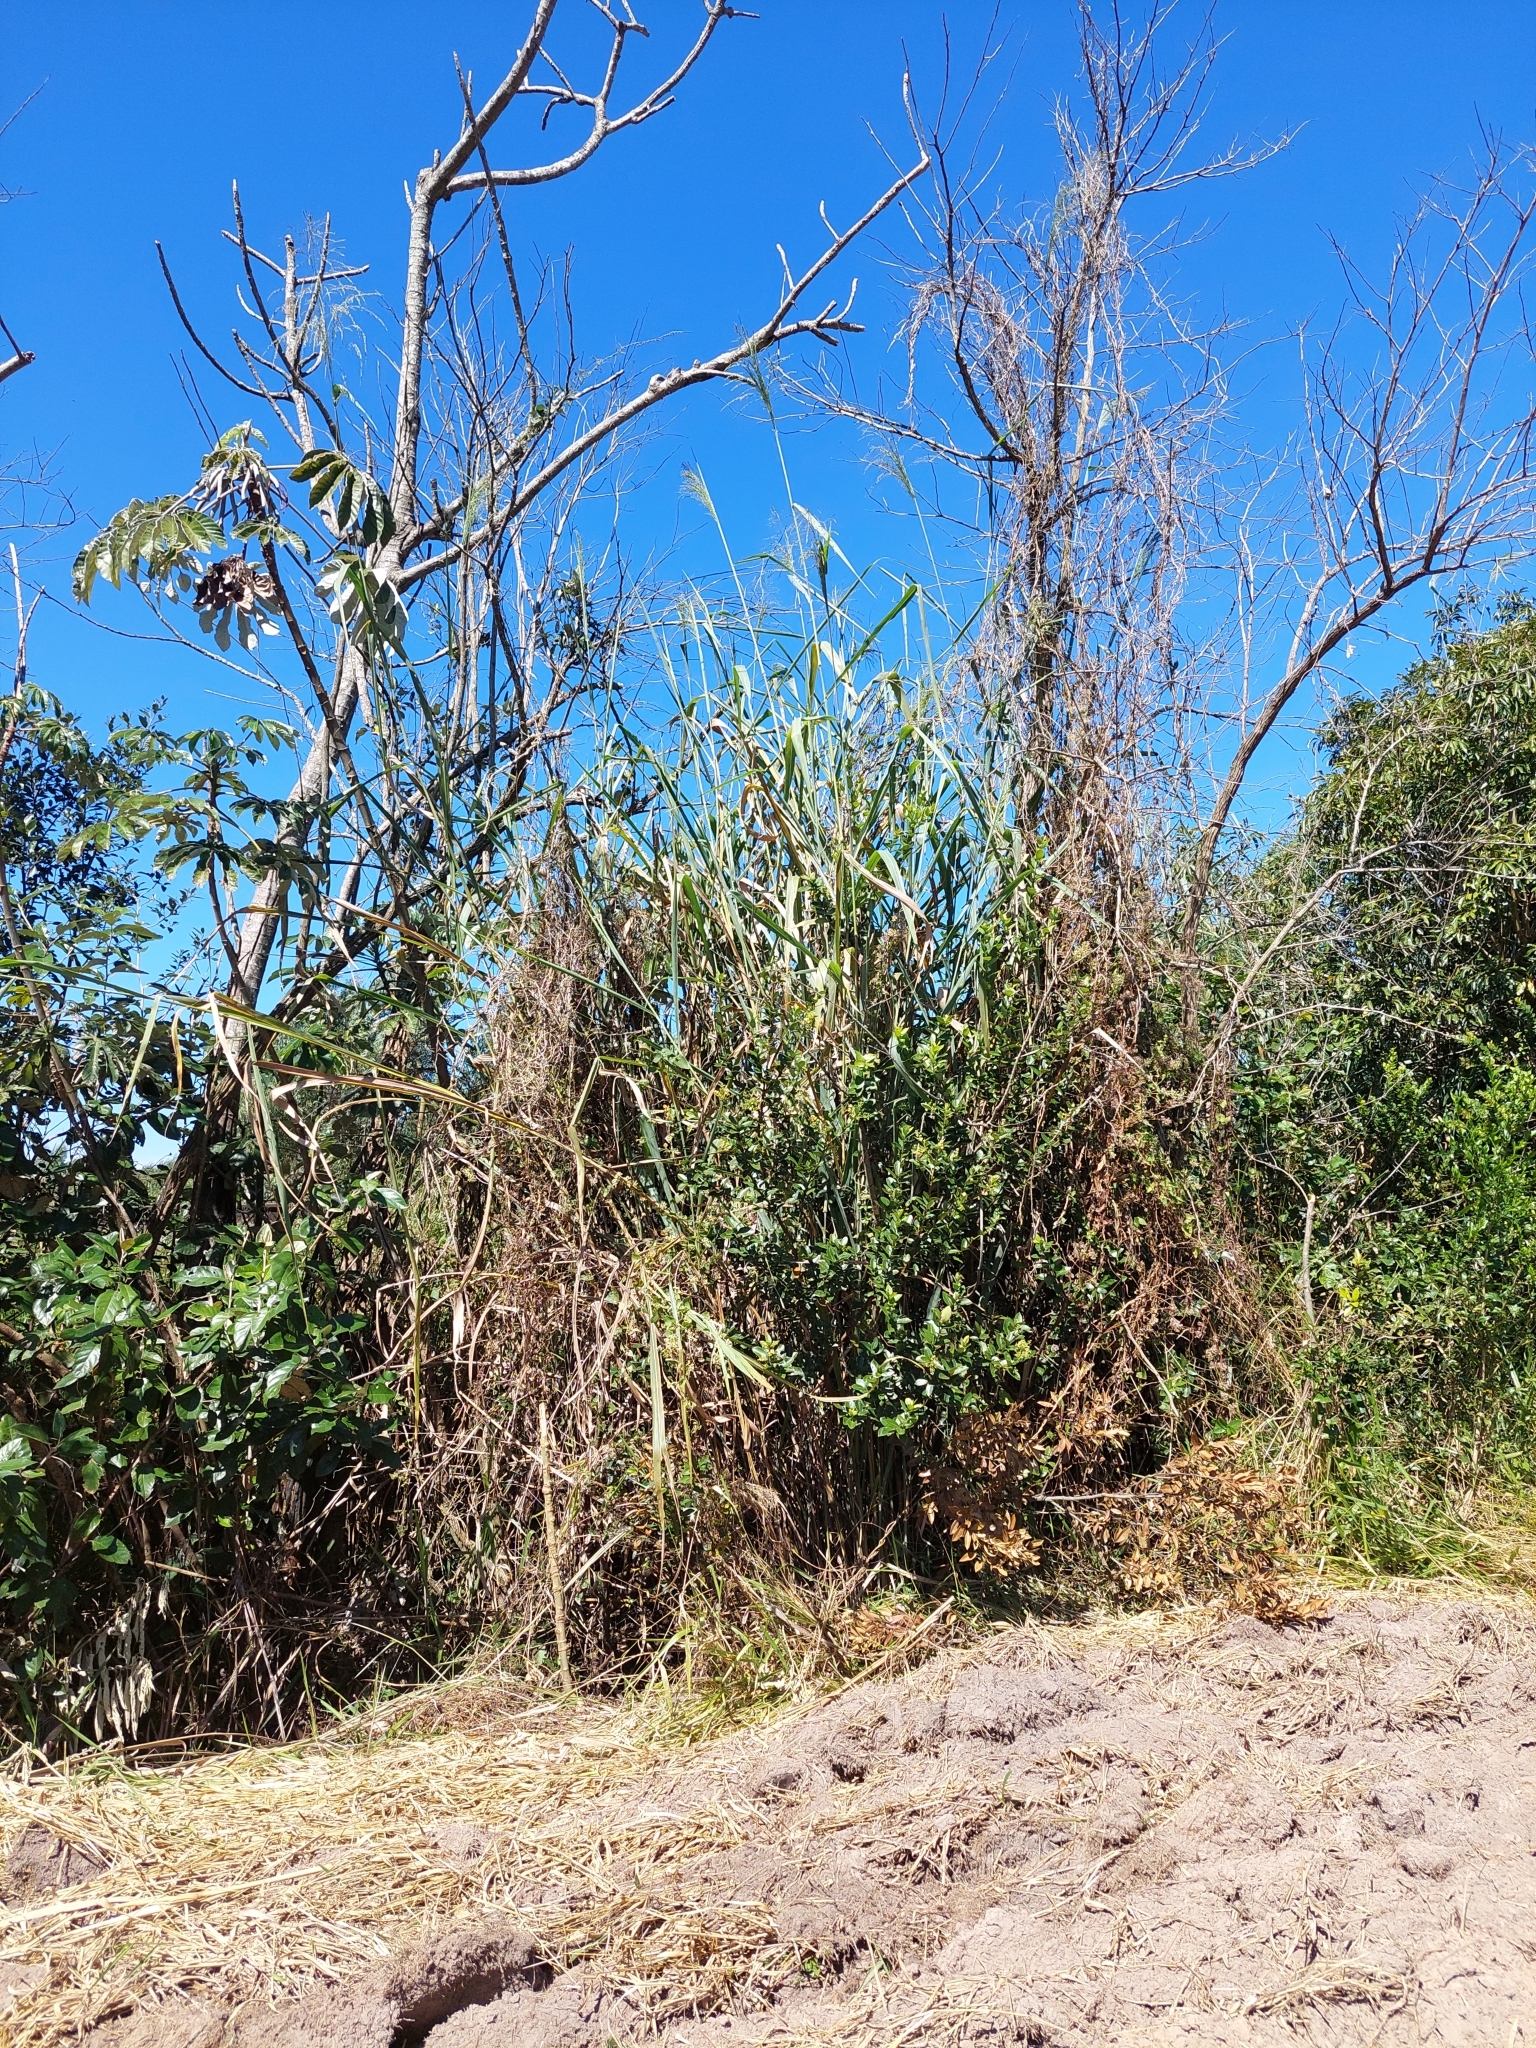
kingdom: Plantae
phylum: Tracheophyta
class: Liliopsida
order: Poales
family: Poaceae
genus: Megathyrsus
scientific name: Megathyrsus maximus
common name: Guineagrass
